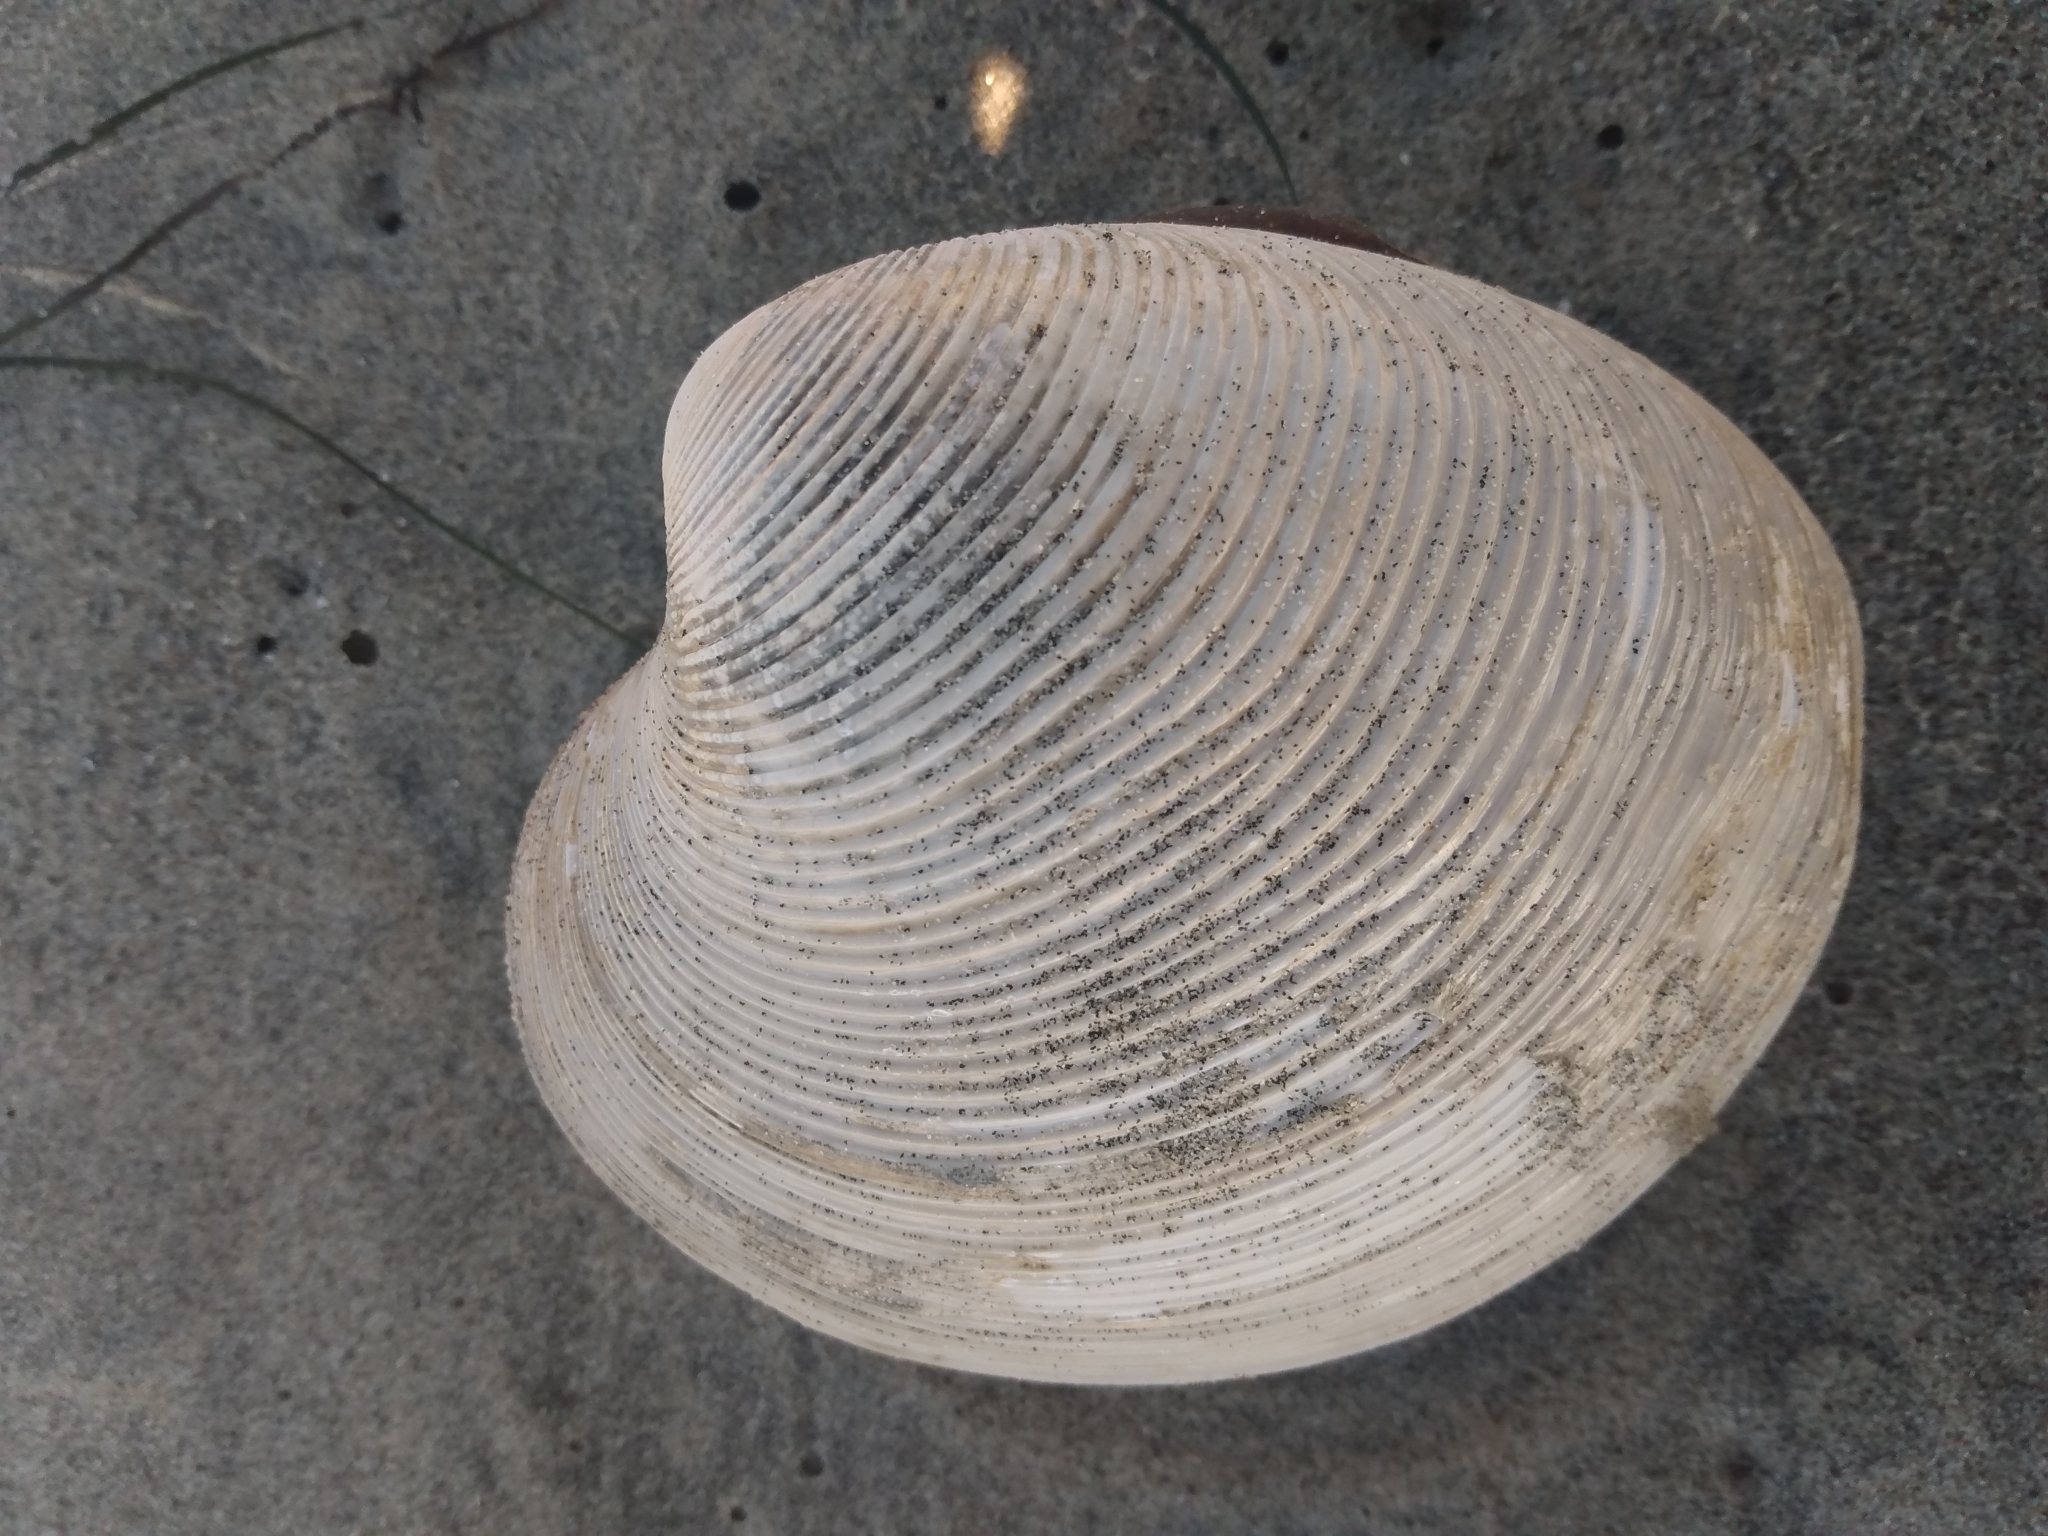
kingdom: Animalia
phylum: Mollusca
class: Bivalvia
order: Venerida
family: Veneridae
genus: Amiantis
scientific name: Amiantis callosa
